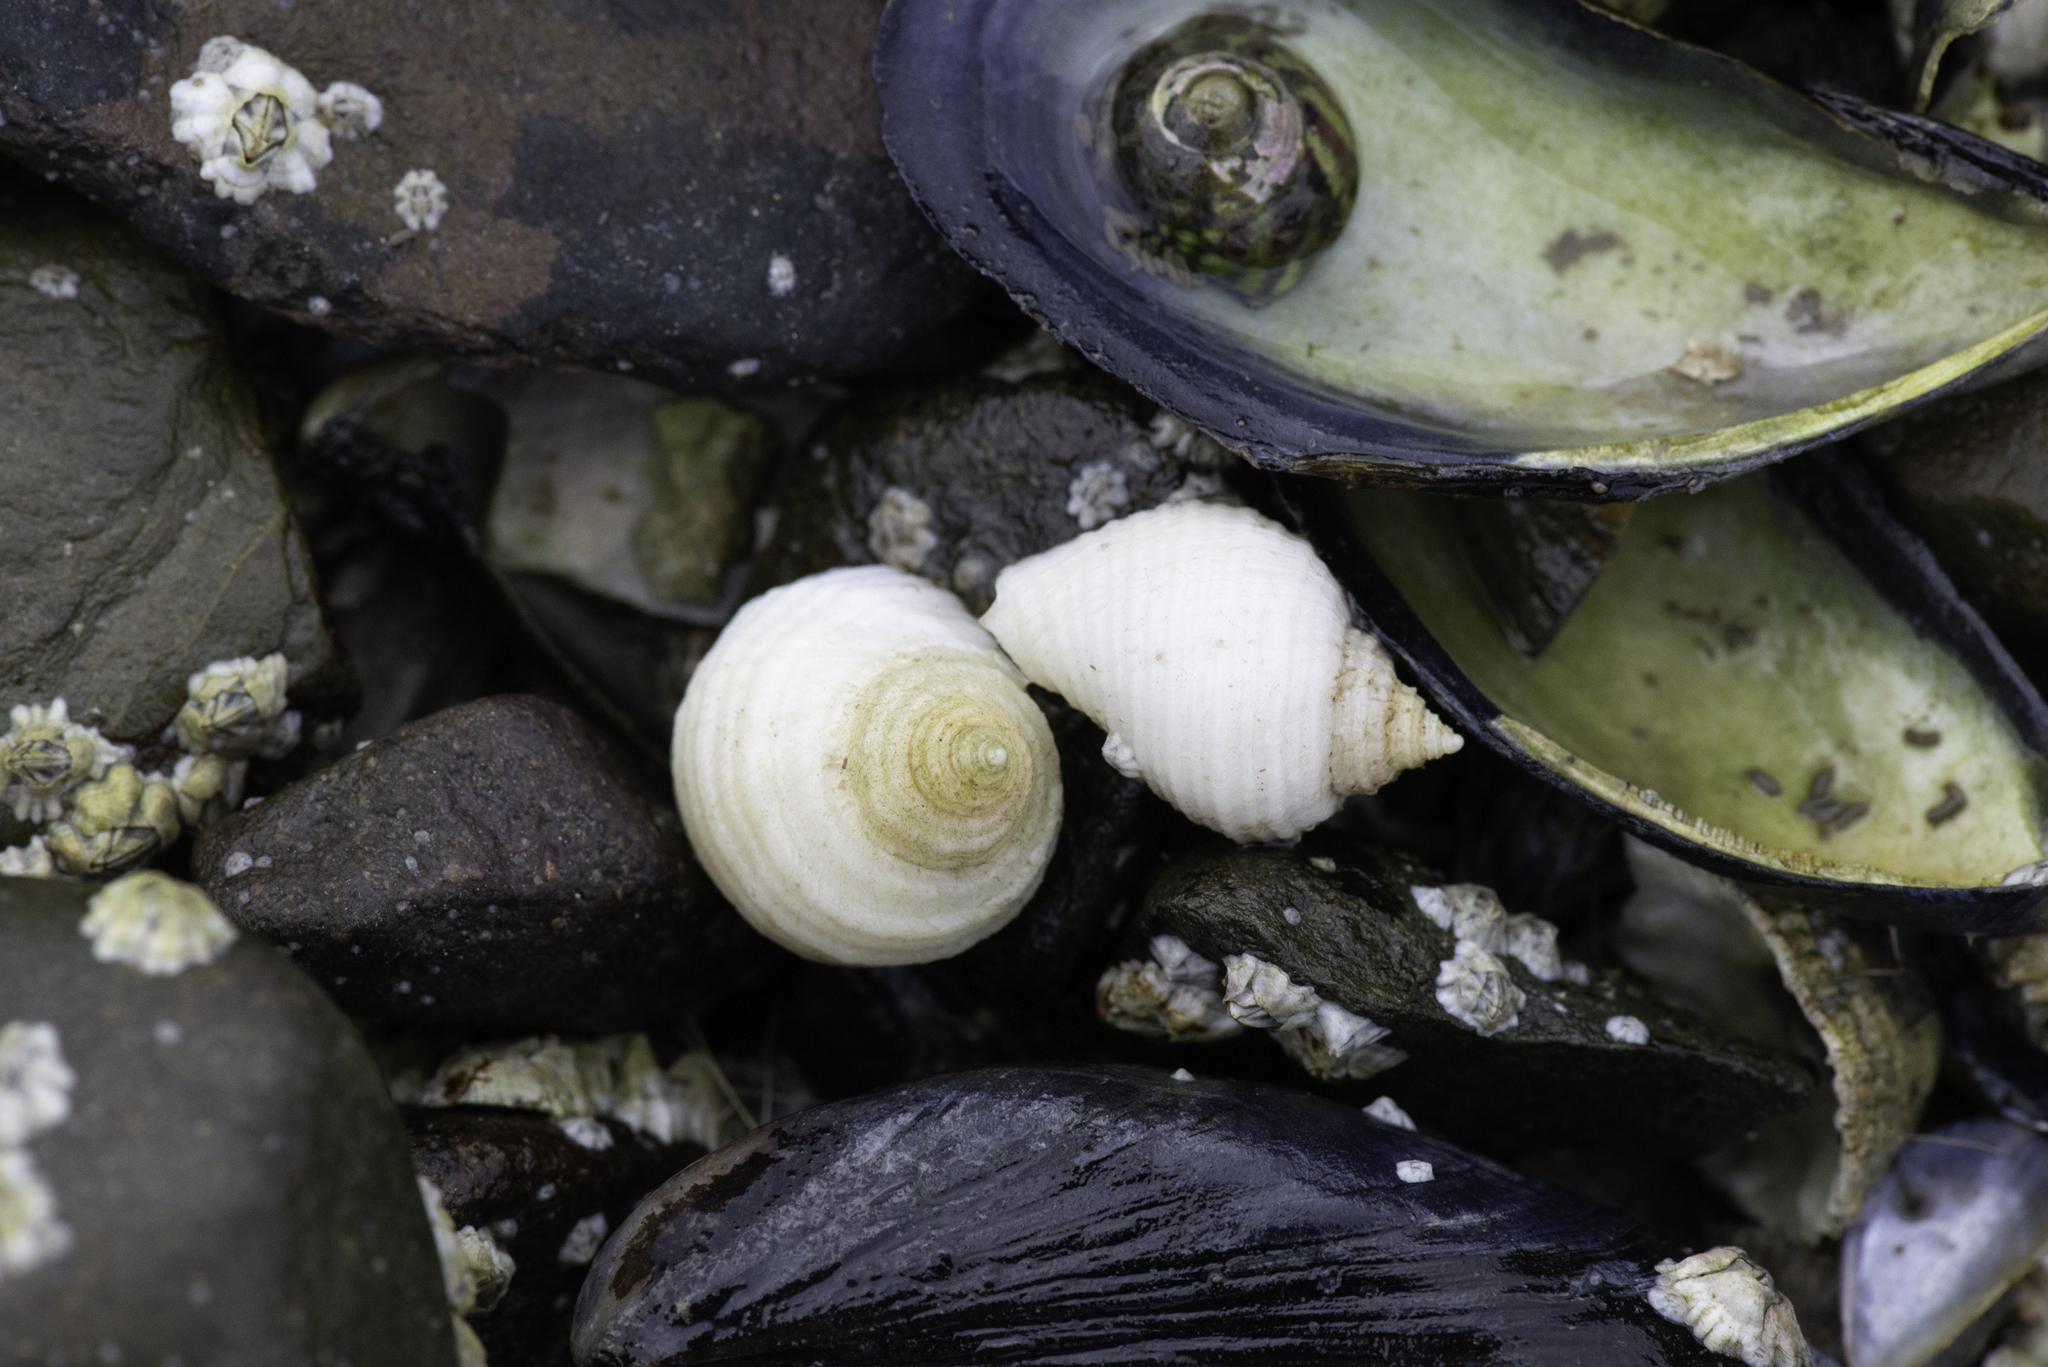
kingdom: Animalia
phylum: Mollusca
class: Gastropoda
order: Neogastropoda
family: Muricidae
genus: Nucella
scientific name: Nucella lapillus
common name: Dog whelk
